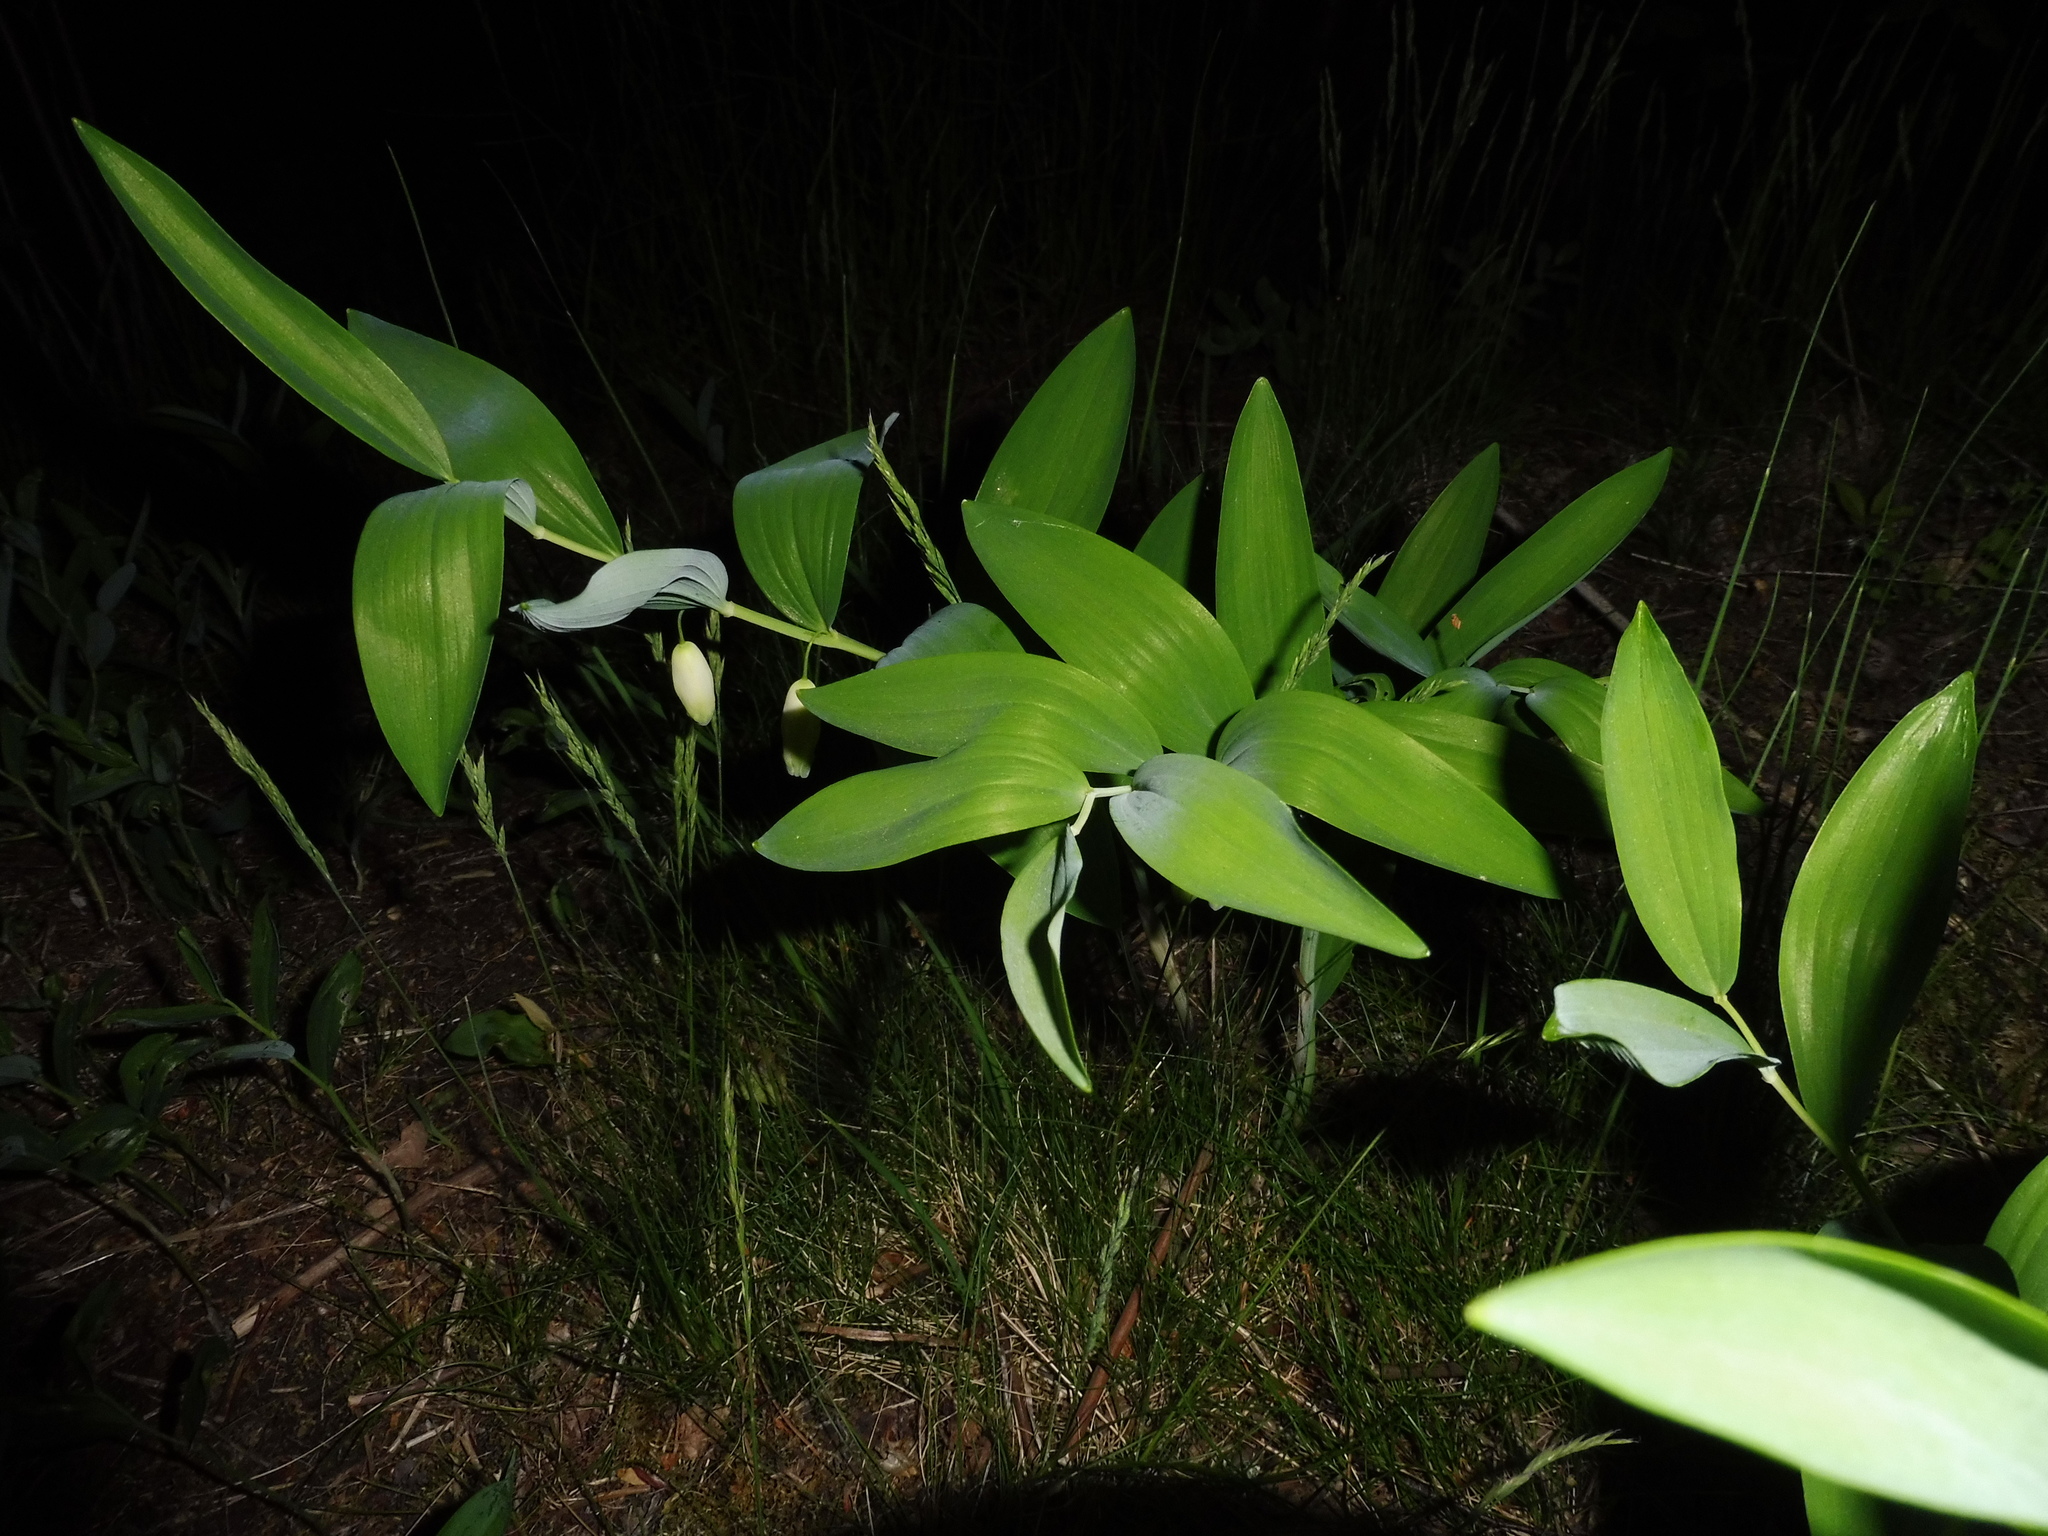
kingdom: Plantae
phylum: Tracheophyta
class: Liliopsida
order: Asparagales
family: Asparagaceae
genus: Polygonatum
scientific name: Polygonatum odoratum
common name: Angular solomon's-seal
